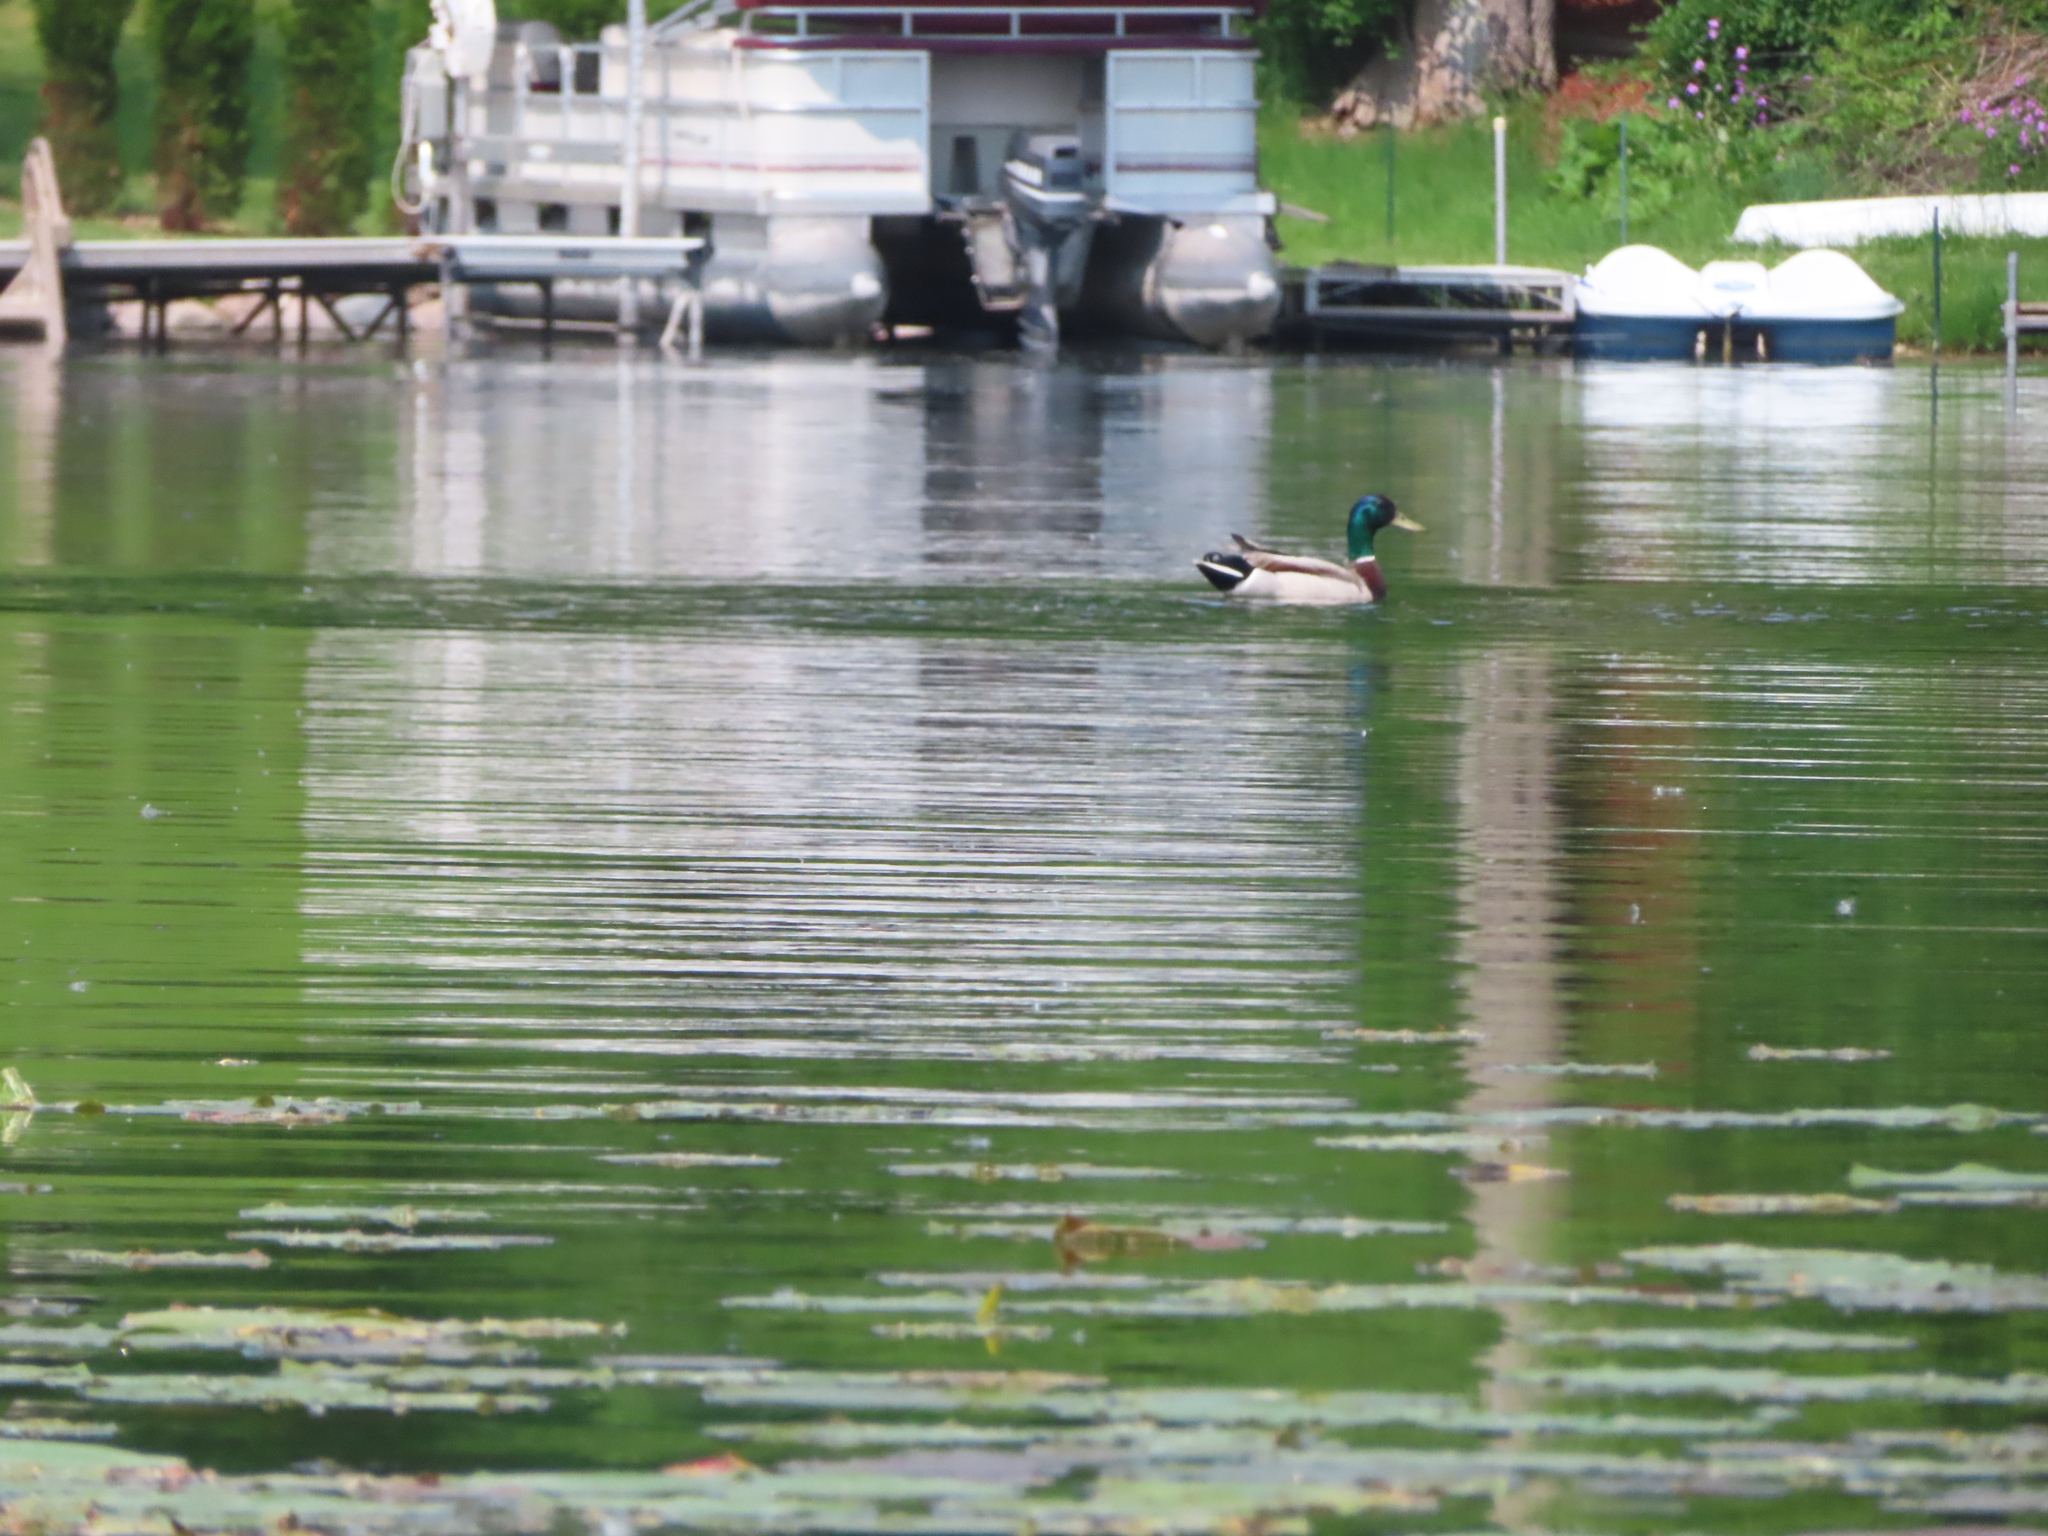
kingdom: Animalia
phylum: Chordata
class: Aves
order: Anseriformes
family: Anatidae
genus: Anas
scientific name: Anas platyrhynchos
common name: Mallard
